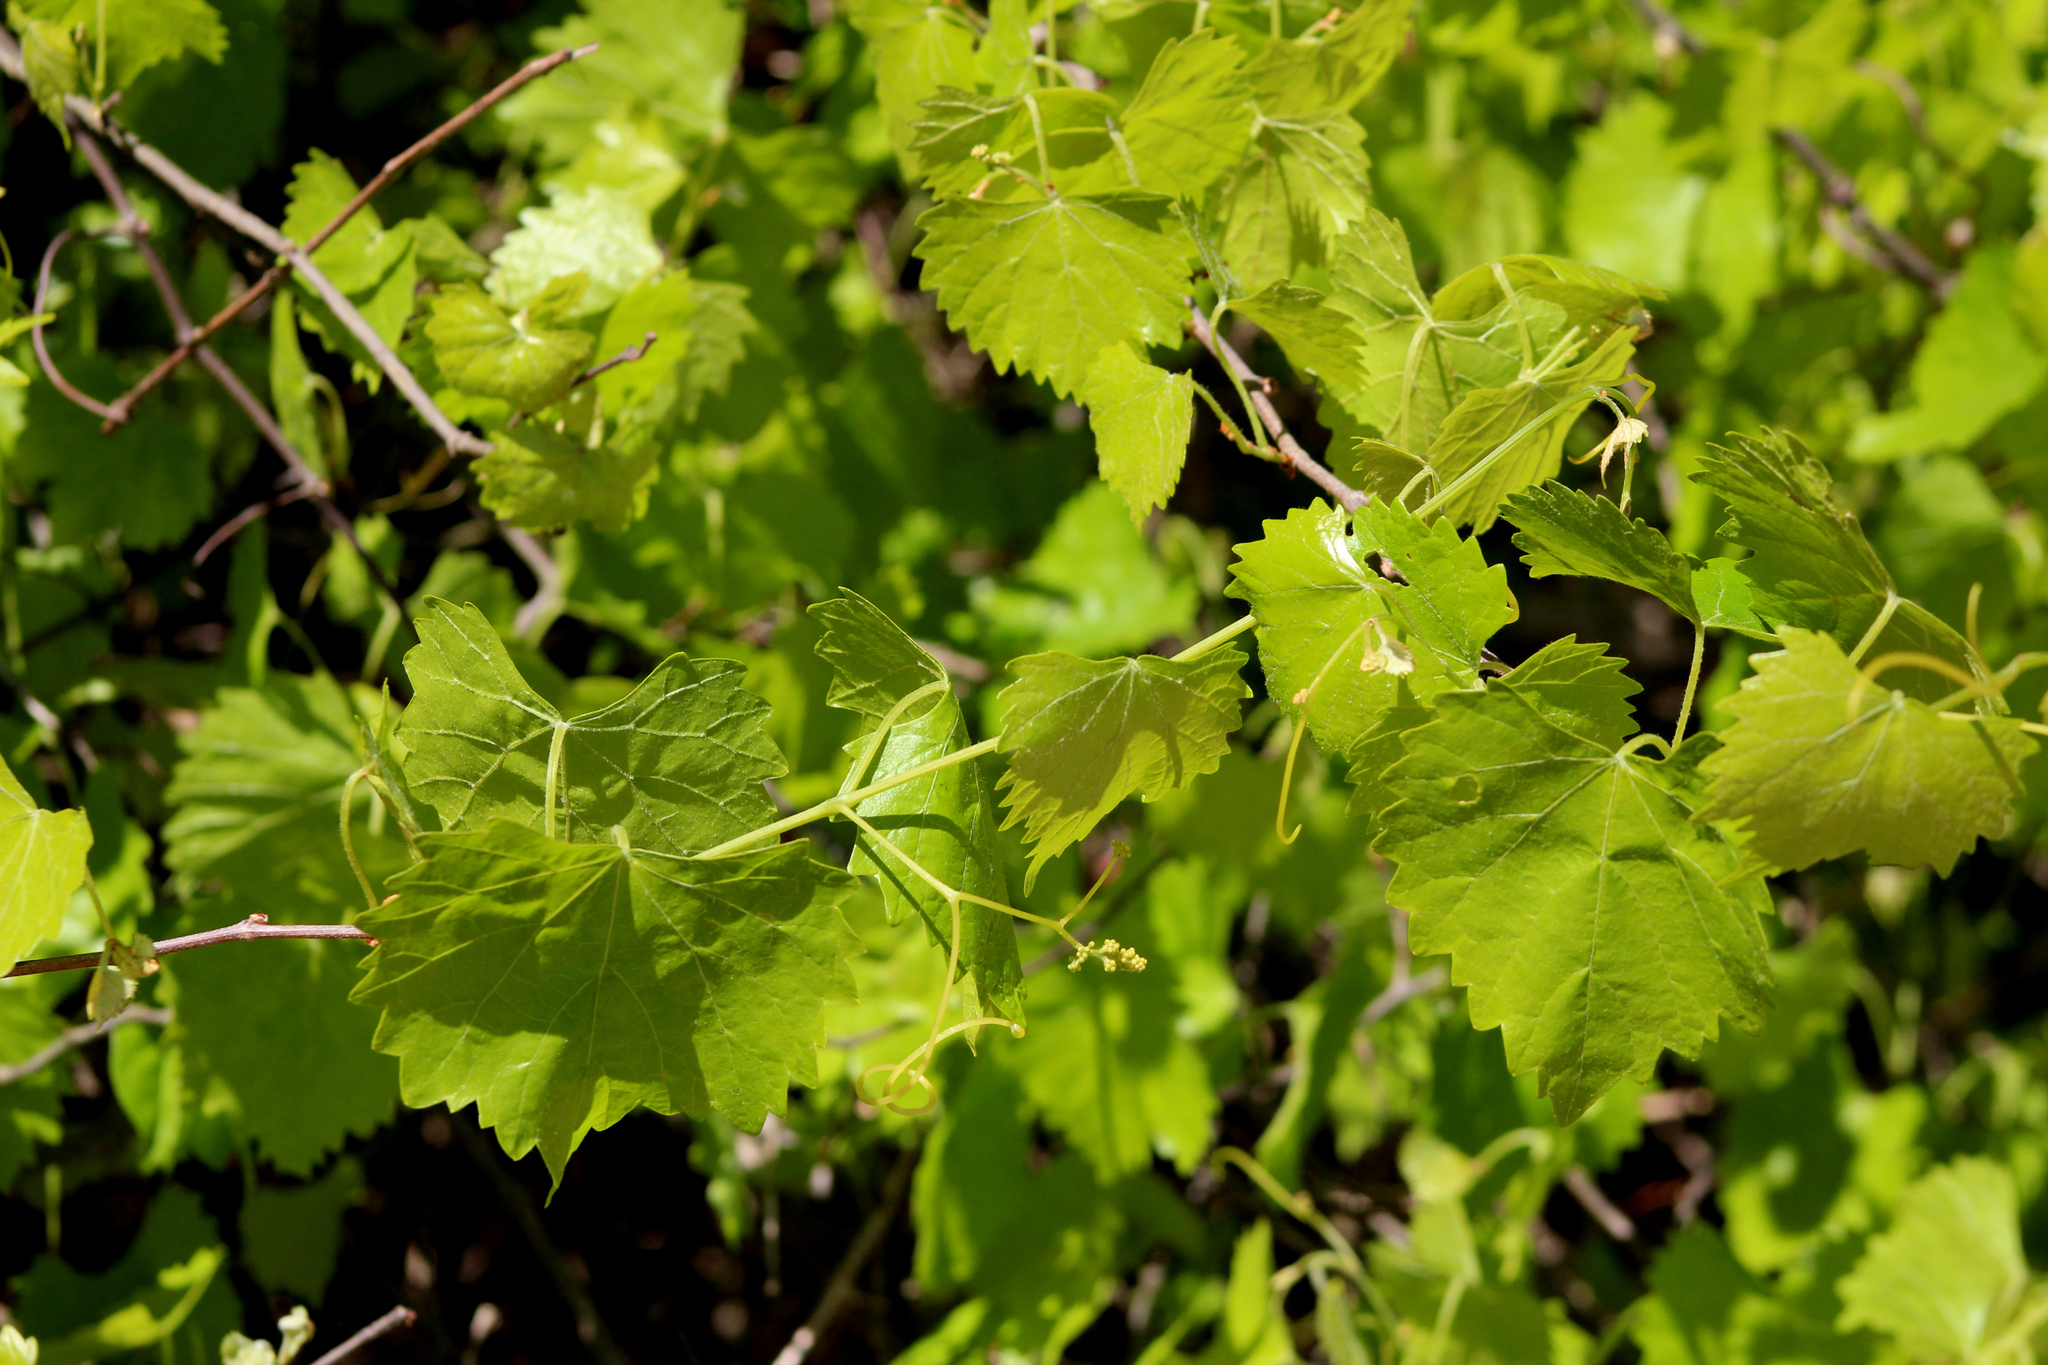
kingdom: Plantae
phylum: Tracheophyta
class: Magnoliopsida
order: Vitales
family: Vitaceae
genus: Vitis
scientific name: Vitis rotundifolia
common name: Muscadine grape
